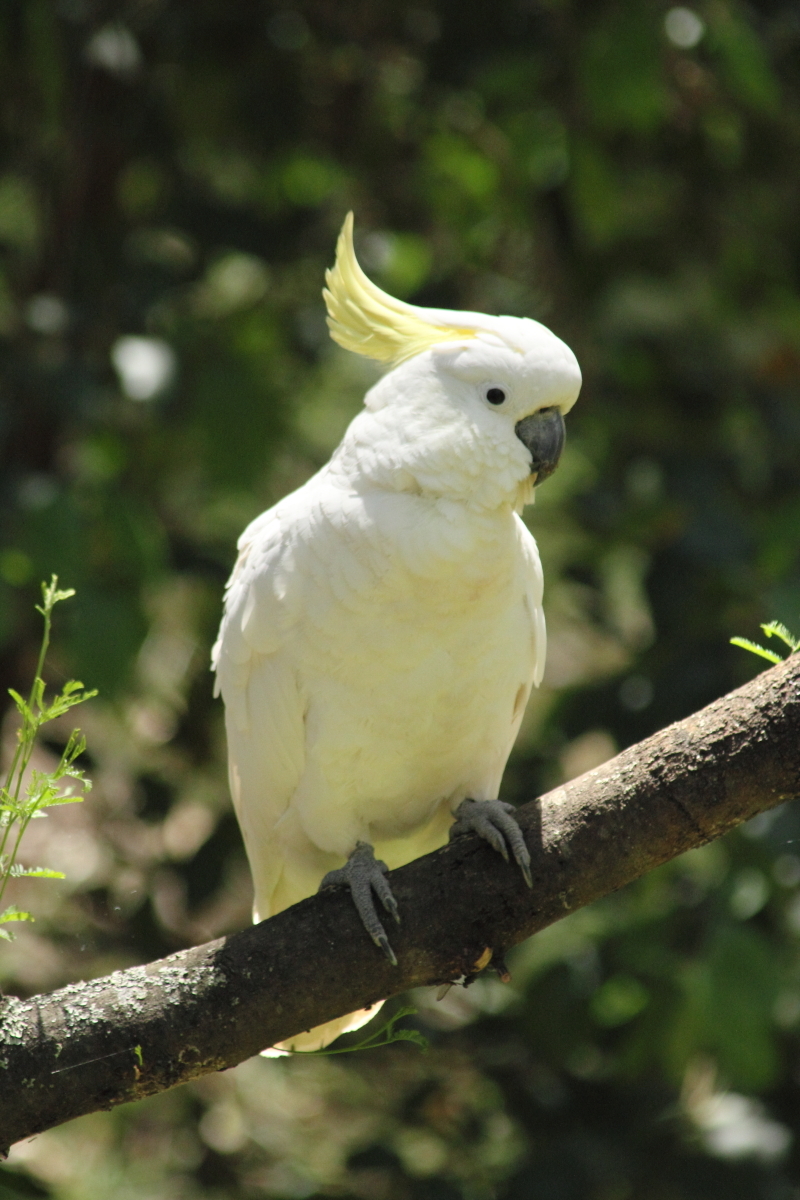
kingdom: Animalia
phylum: Chordata
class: Aves
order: Psittaciformes
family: Psittacidae
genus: Cacatua
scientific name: Cacatua galerita
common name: Sulphur-crested cockatoo
